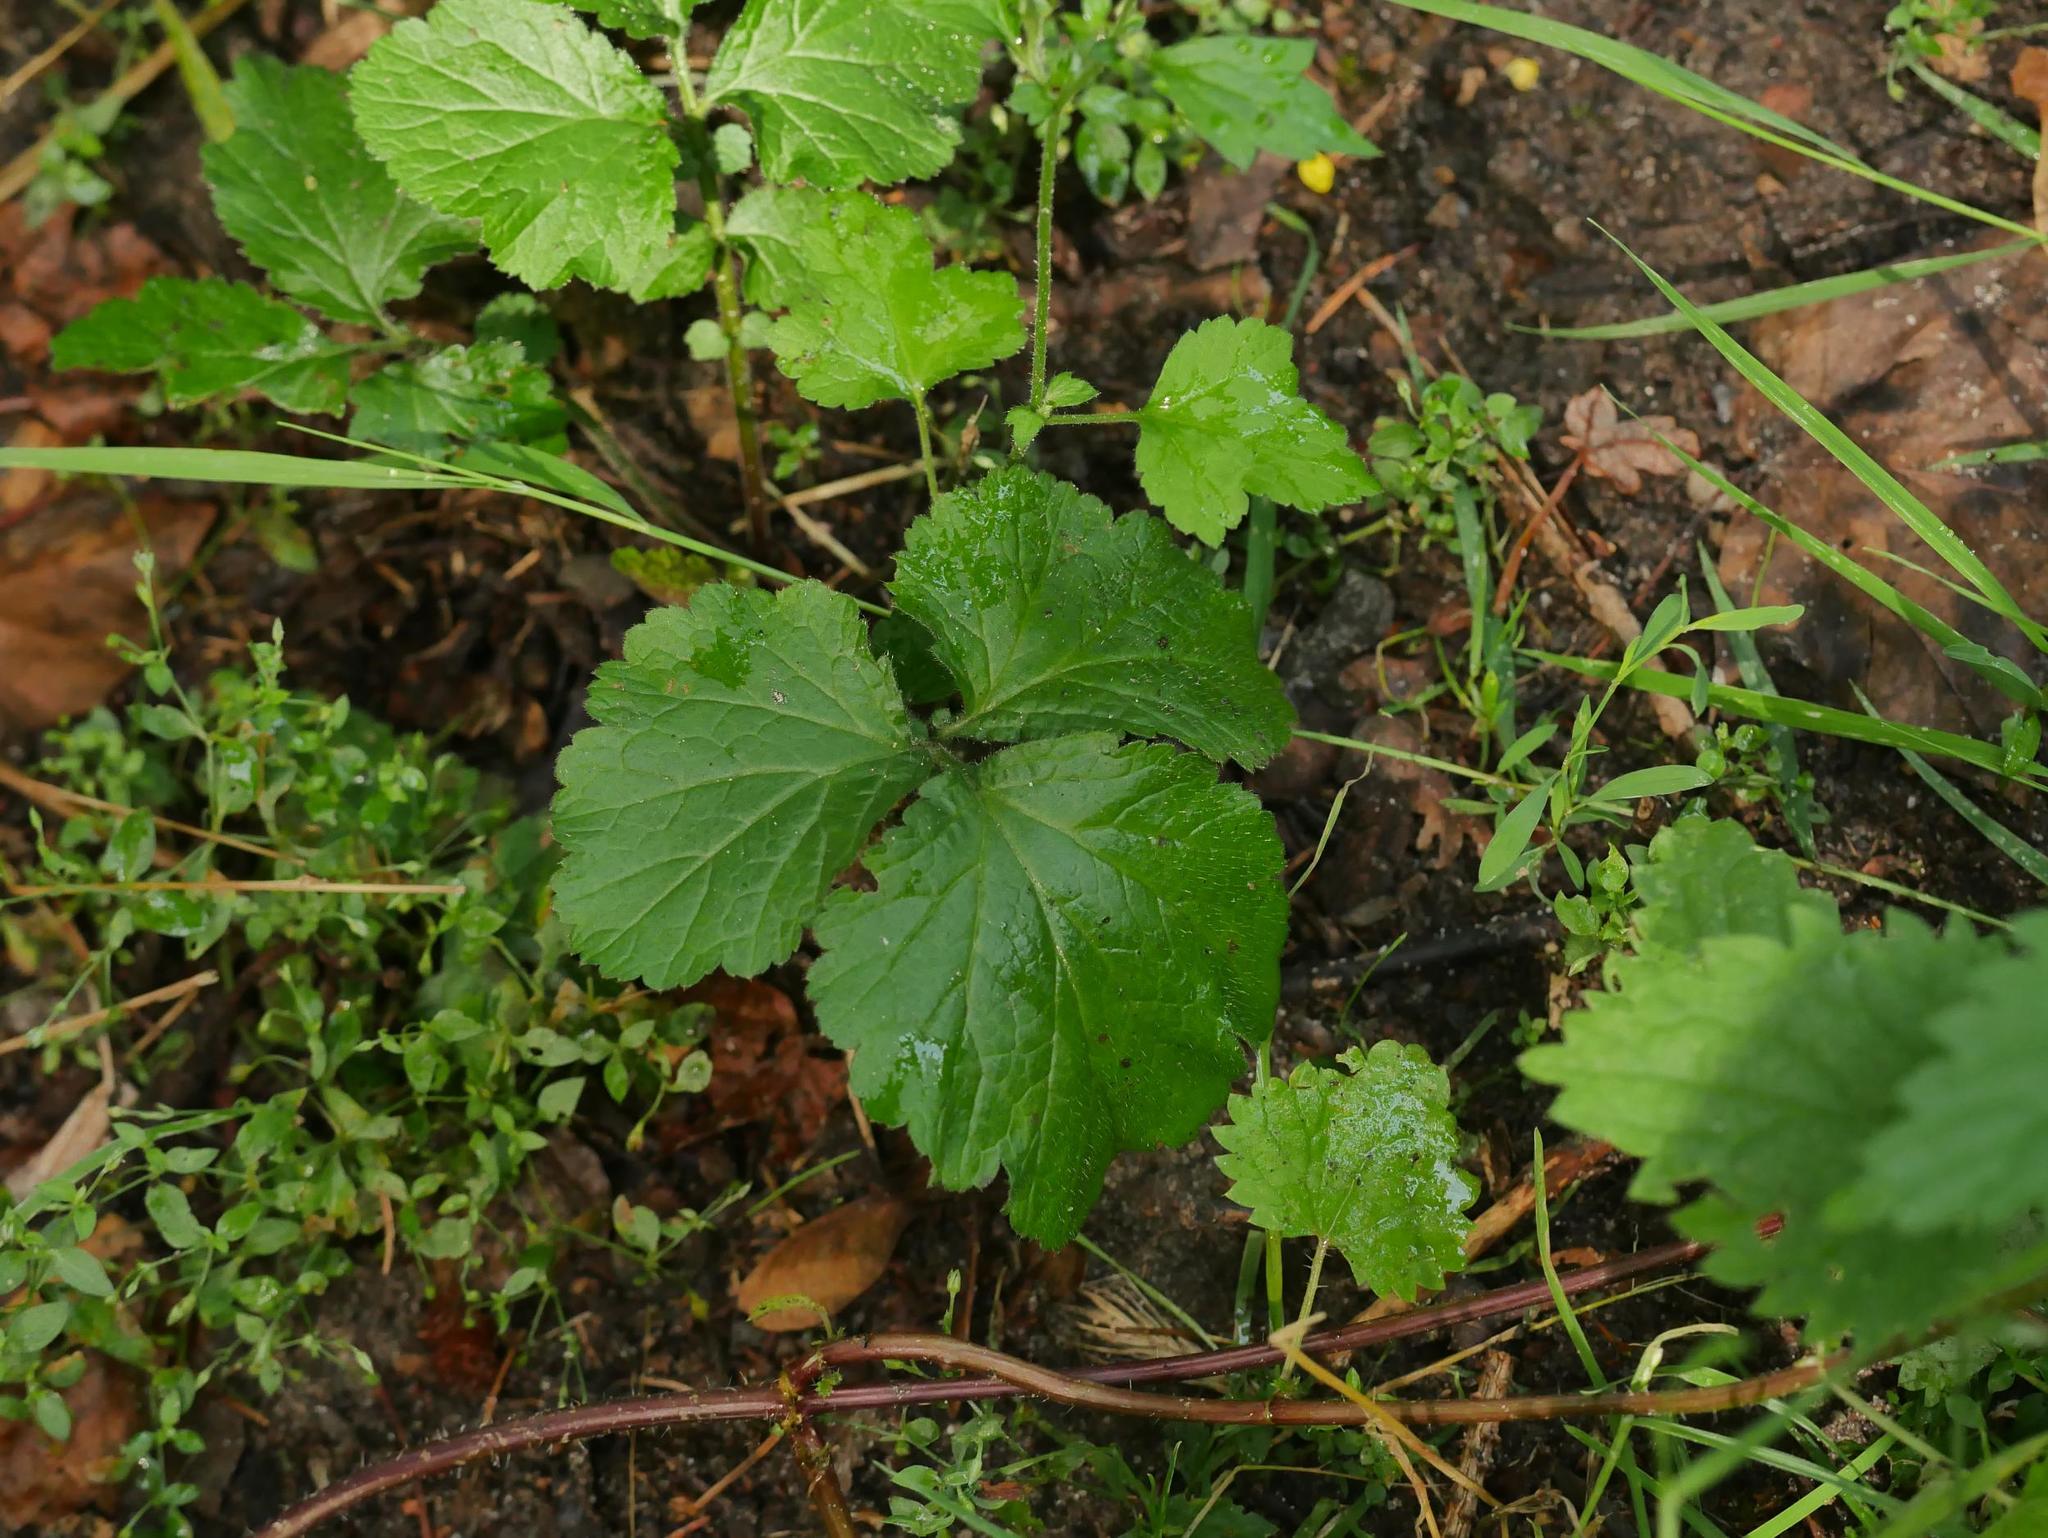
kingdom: Plantae
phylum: Tracheophyta
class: Magnoliopsida
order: Rosales
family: Rosaceae
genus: Geum
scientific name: Geum urbanum
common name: Wood avens
